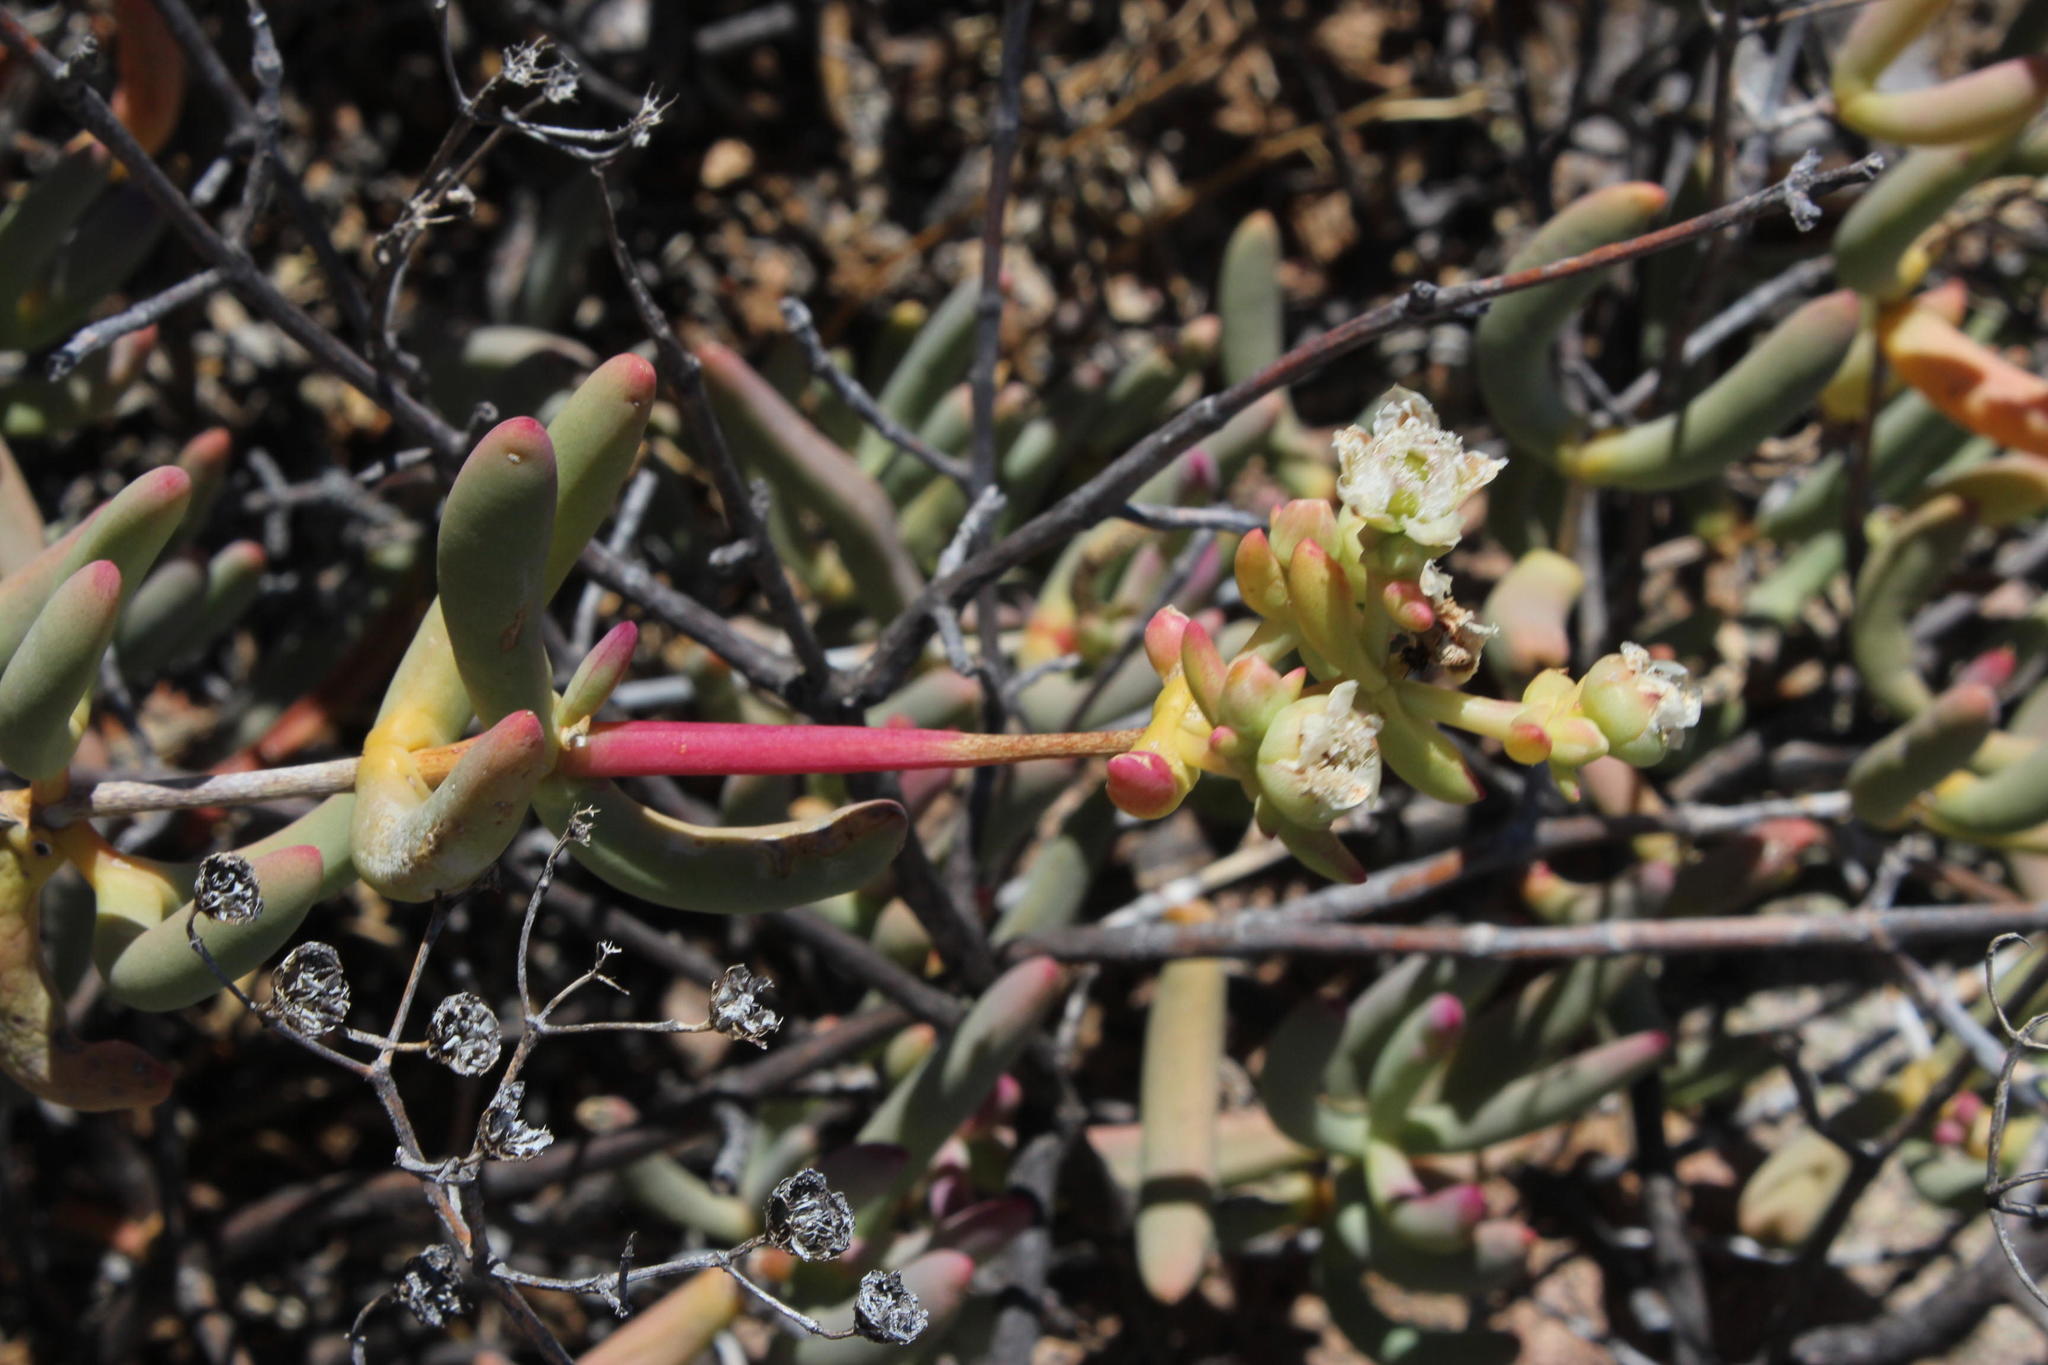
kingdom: Plantae
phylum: Tracheophyta
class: Magnoliopsida
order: Caryophyllales
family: Aizoaceae
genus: Stoeberia
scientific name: Stoeberia frutescens
